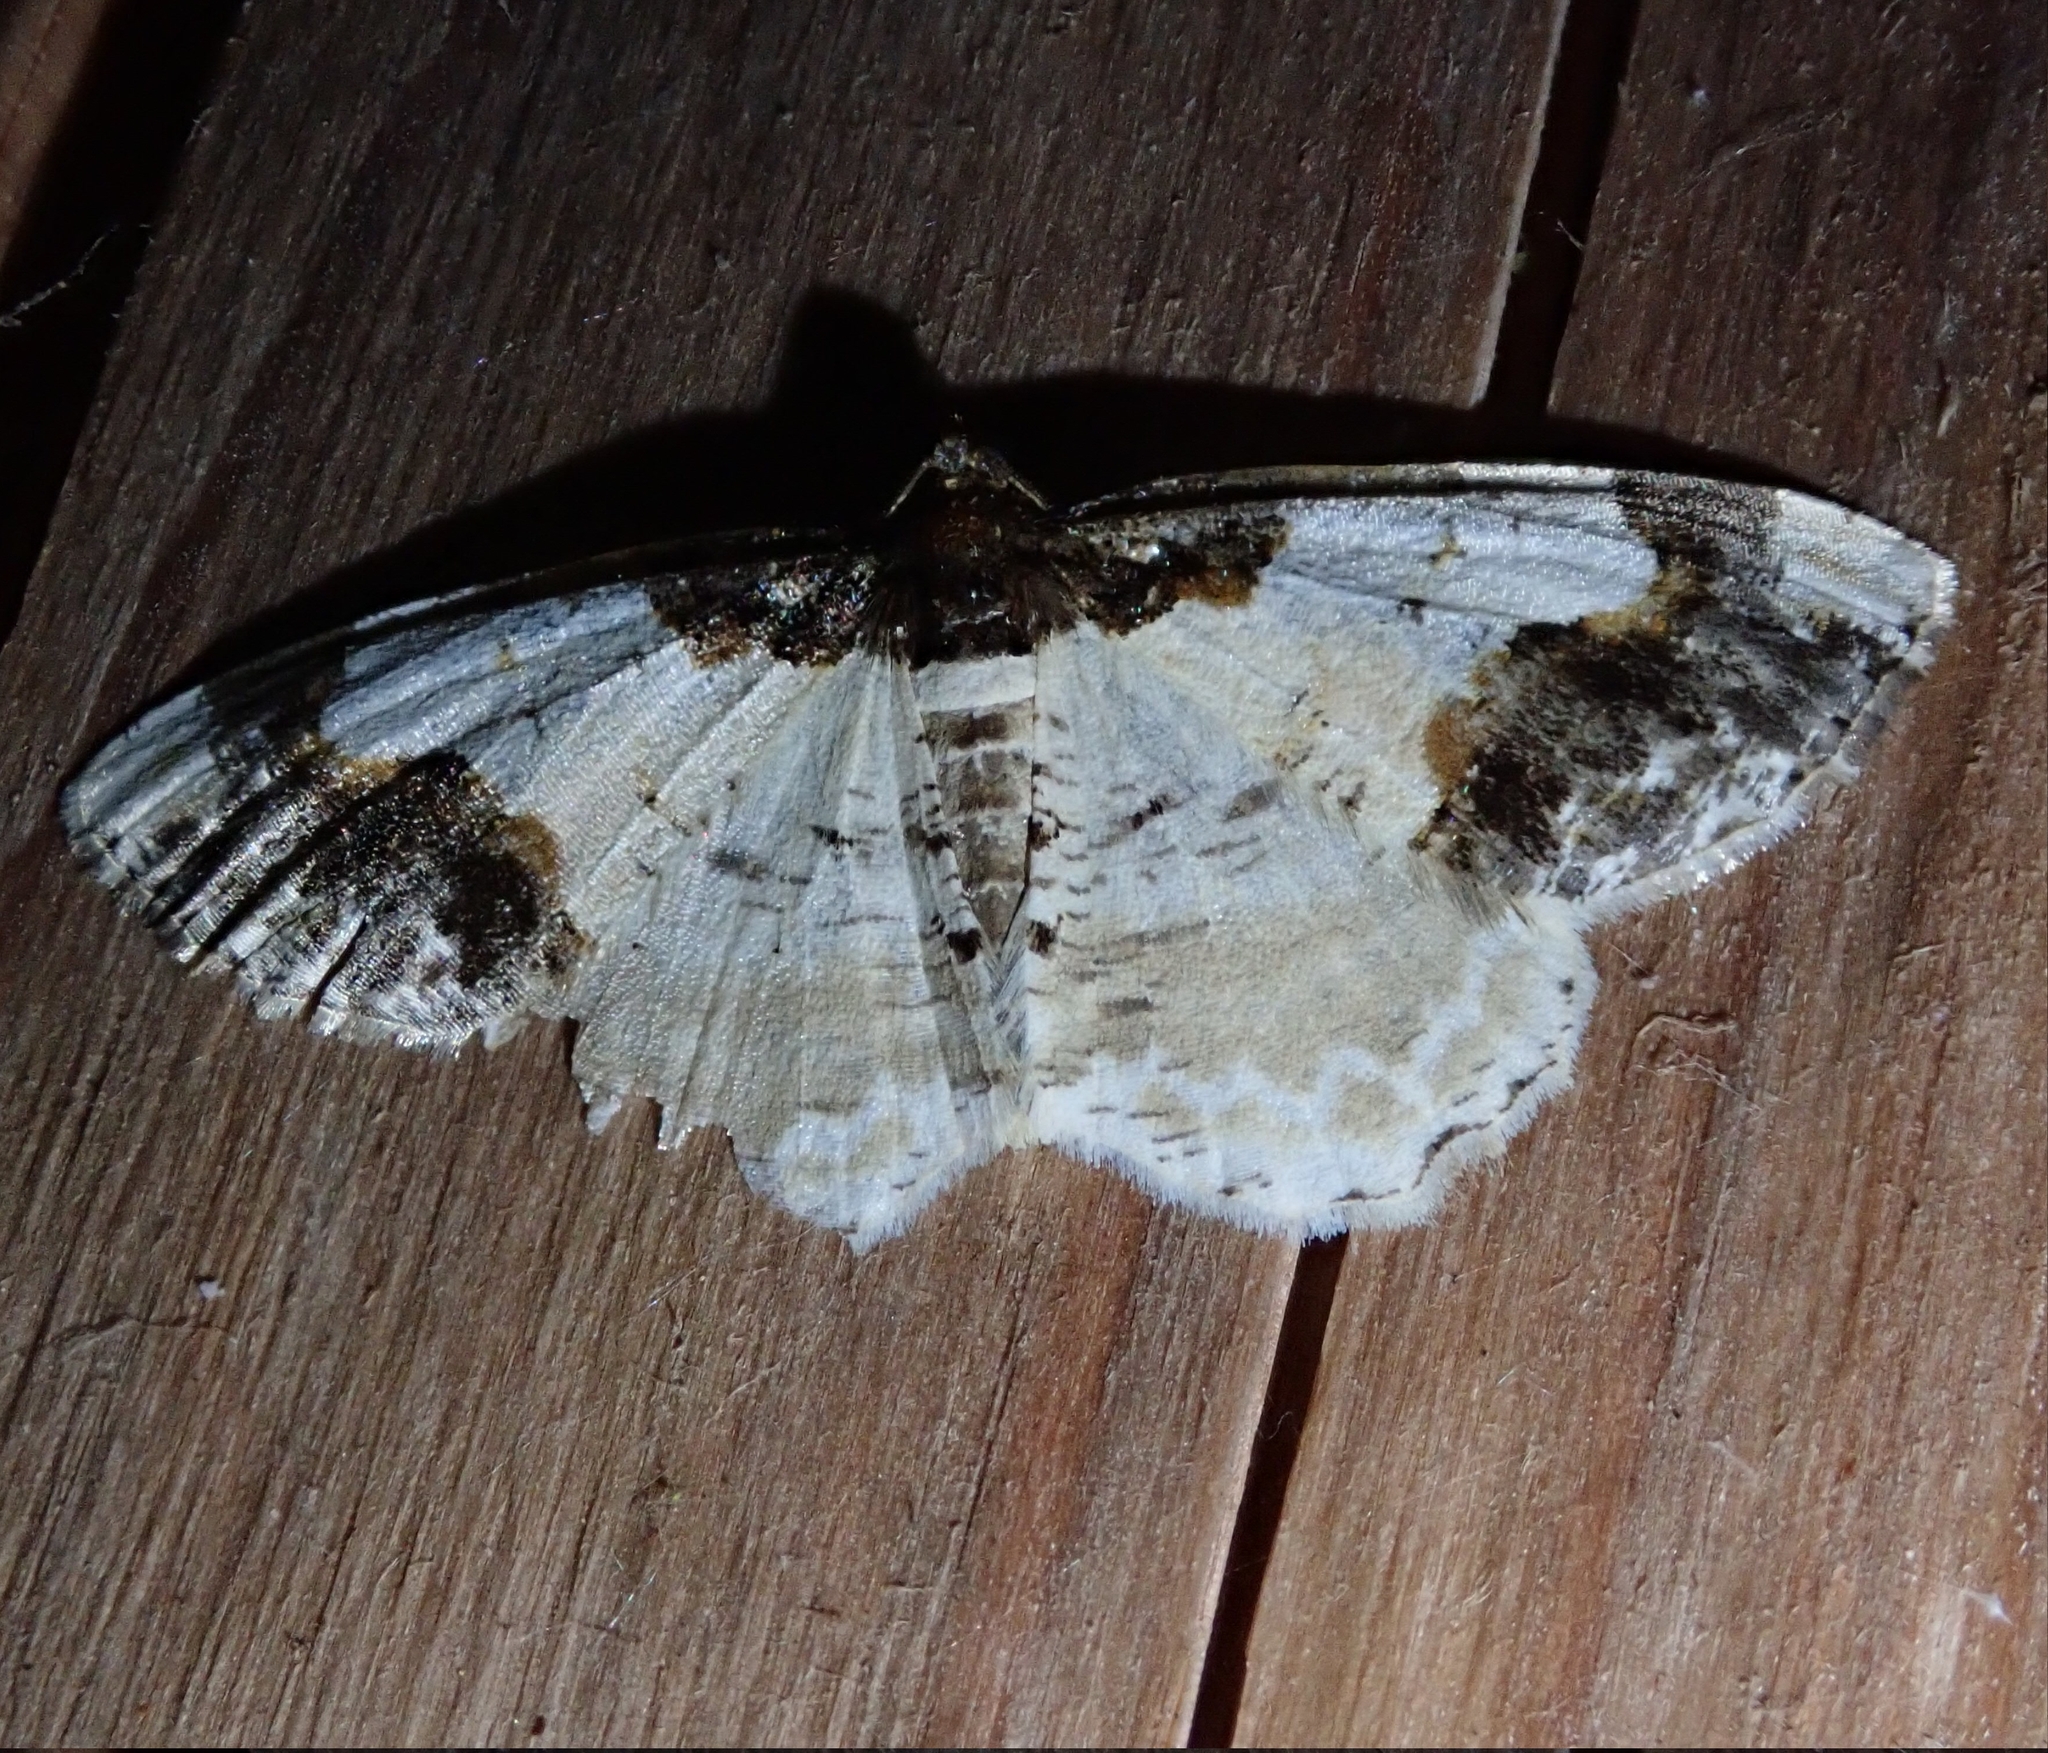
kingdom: Animalia
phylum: Arthropoda
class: Insecta
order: Lepidoptera
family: Geometridae
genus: Ligdia
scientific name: Ligdia adustata
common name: Scorched carpet
